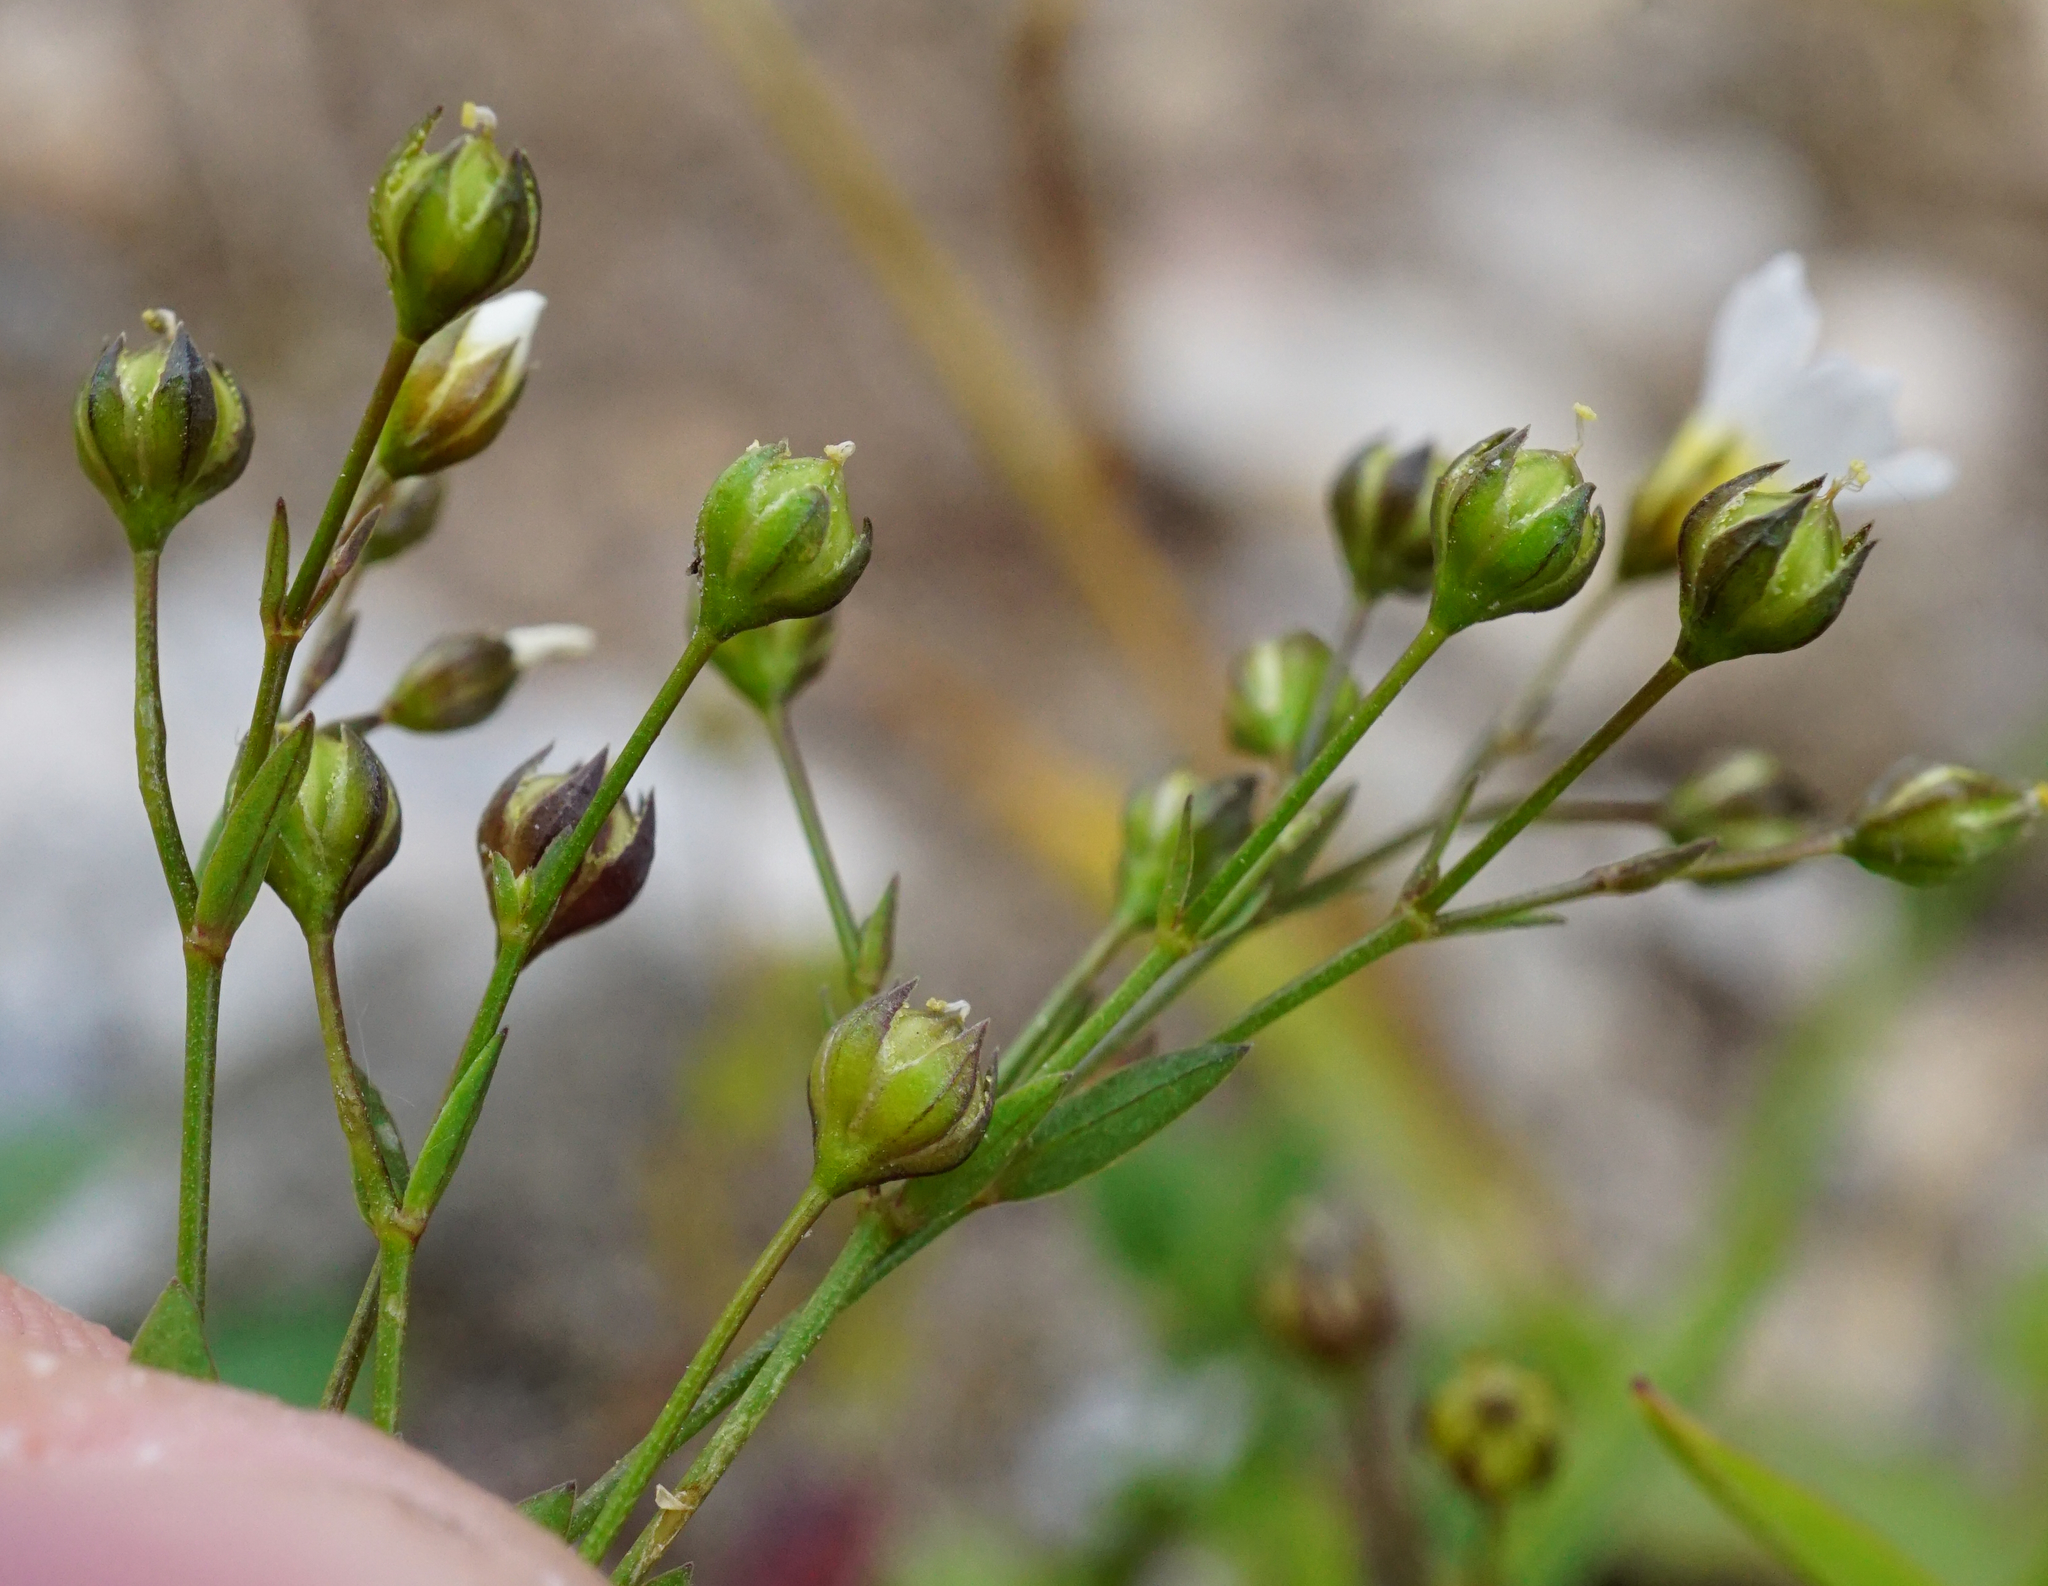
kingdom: Plantae
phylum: Tracheophyta
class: Magnoliopsida
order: Malpighiales
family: Linaceae
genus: Linum
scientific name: Linum catharticum
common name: Fairy flax
